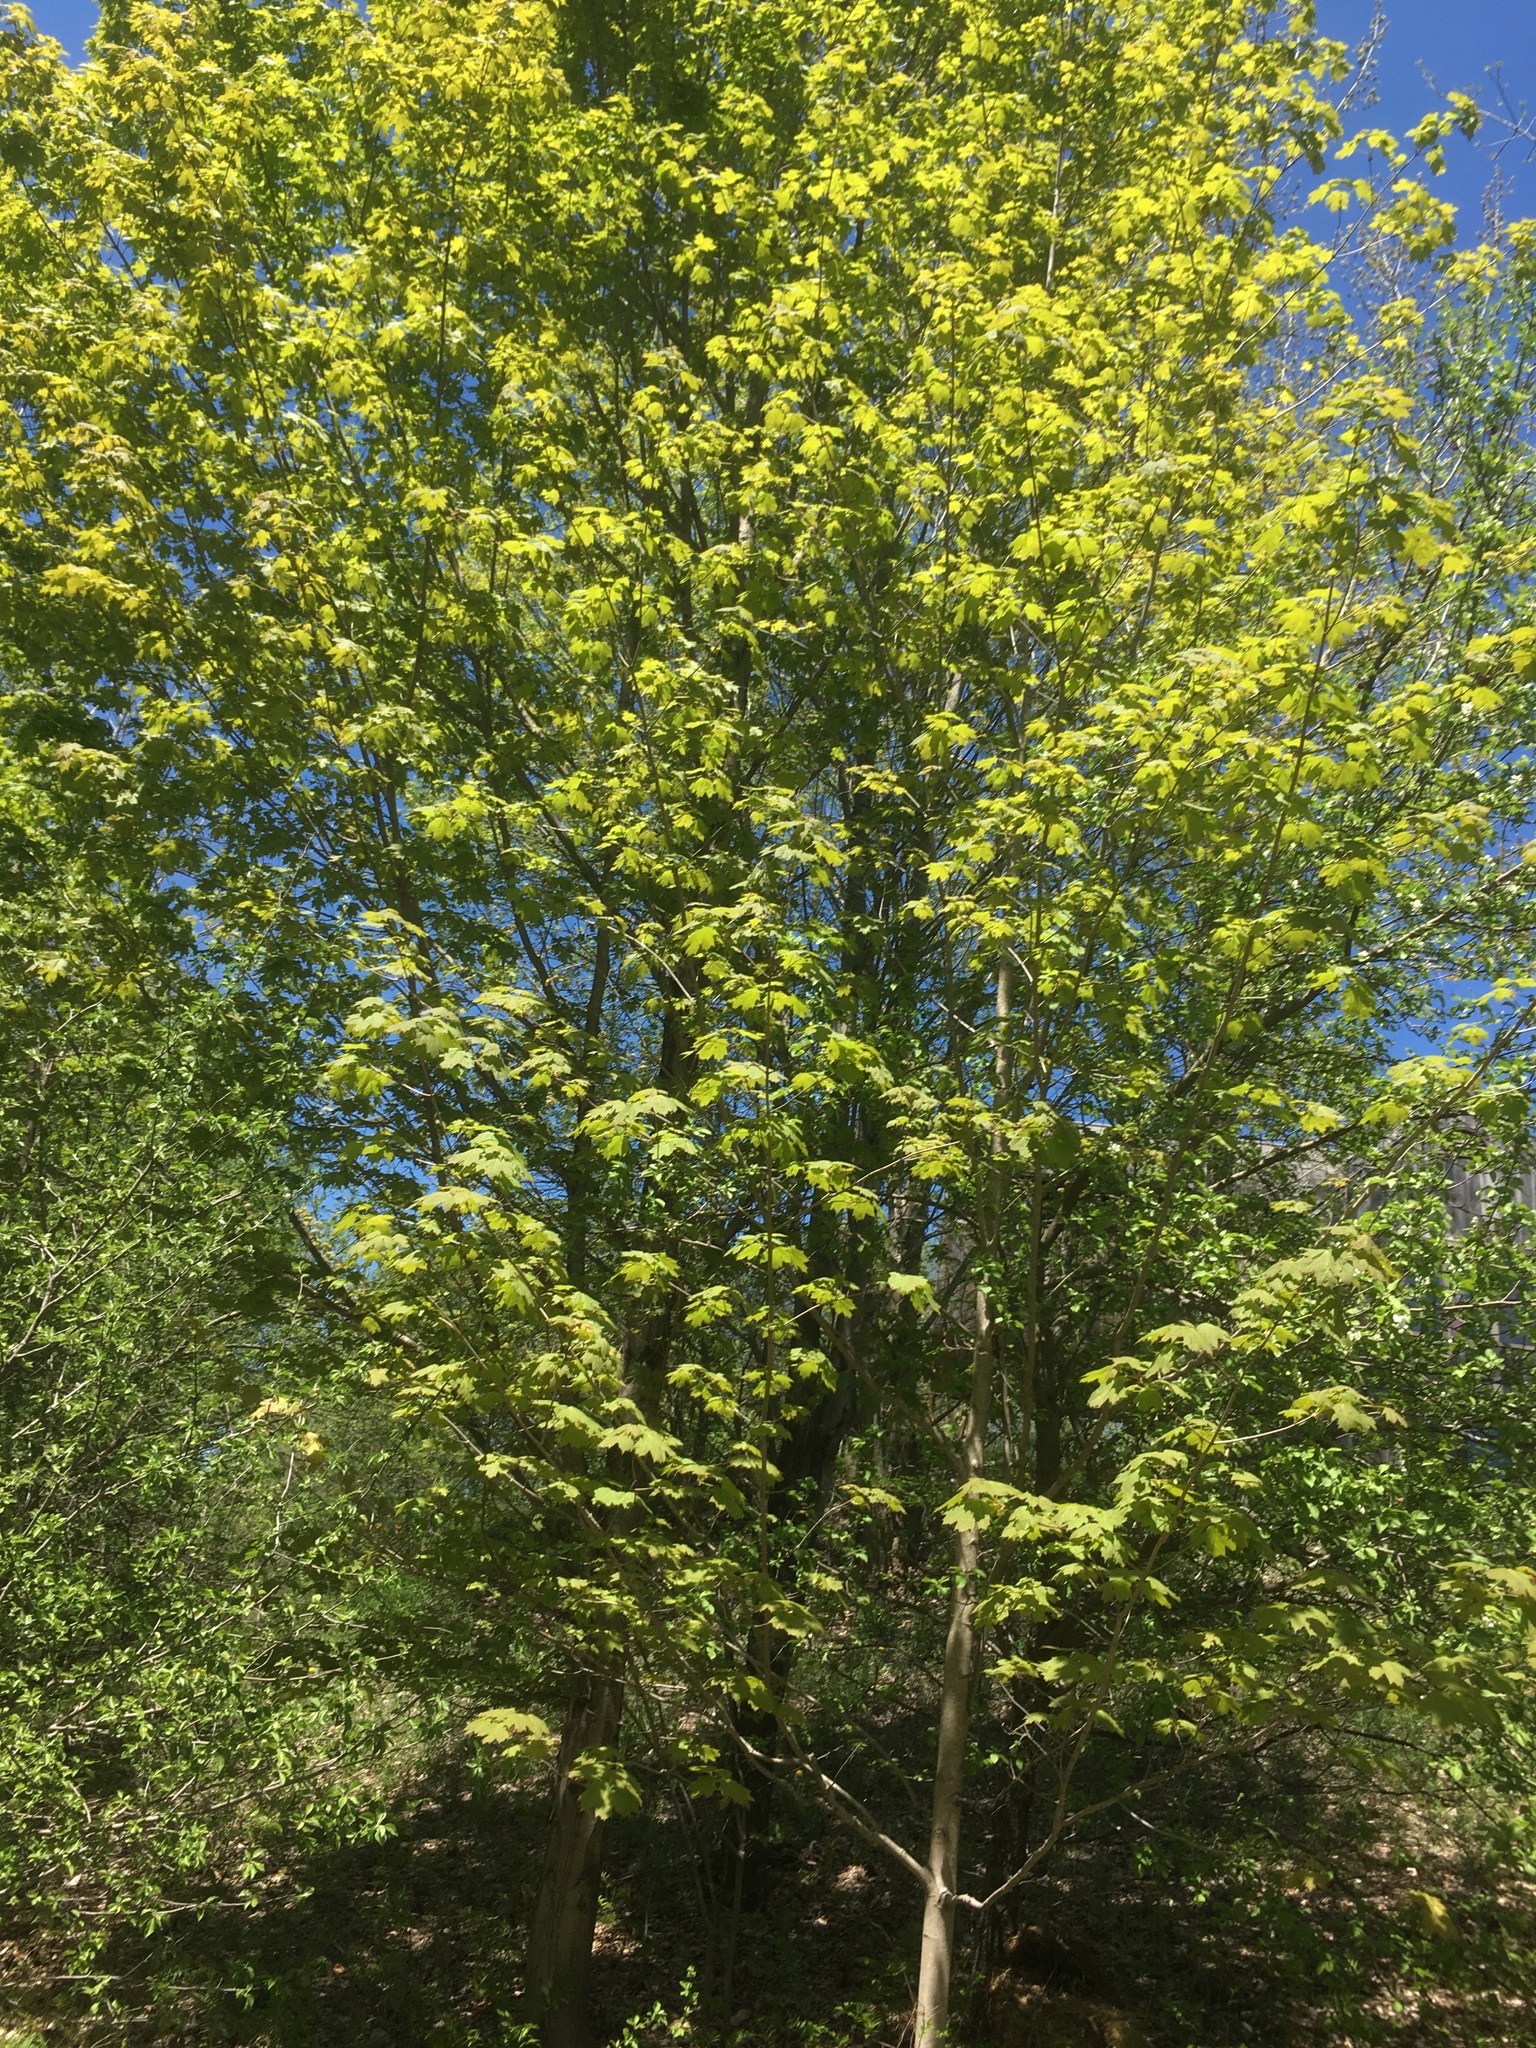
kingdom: Plantae
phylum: Tracheophyta
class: Magnoliopsida
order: Sapindales
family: Sapindaceae
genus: Acer
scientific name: Acer saccharum
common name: Sugar maple
